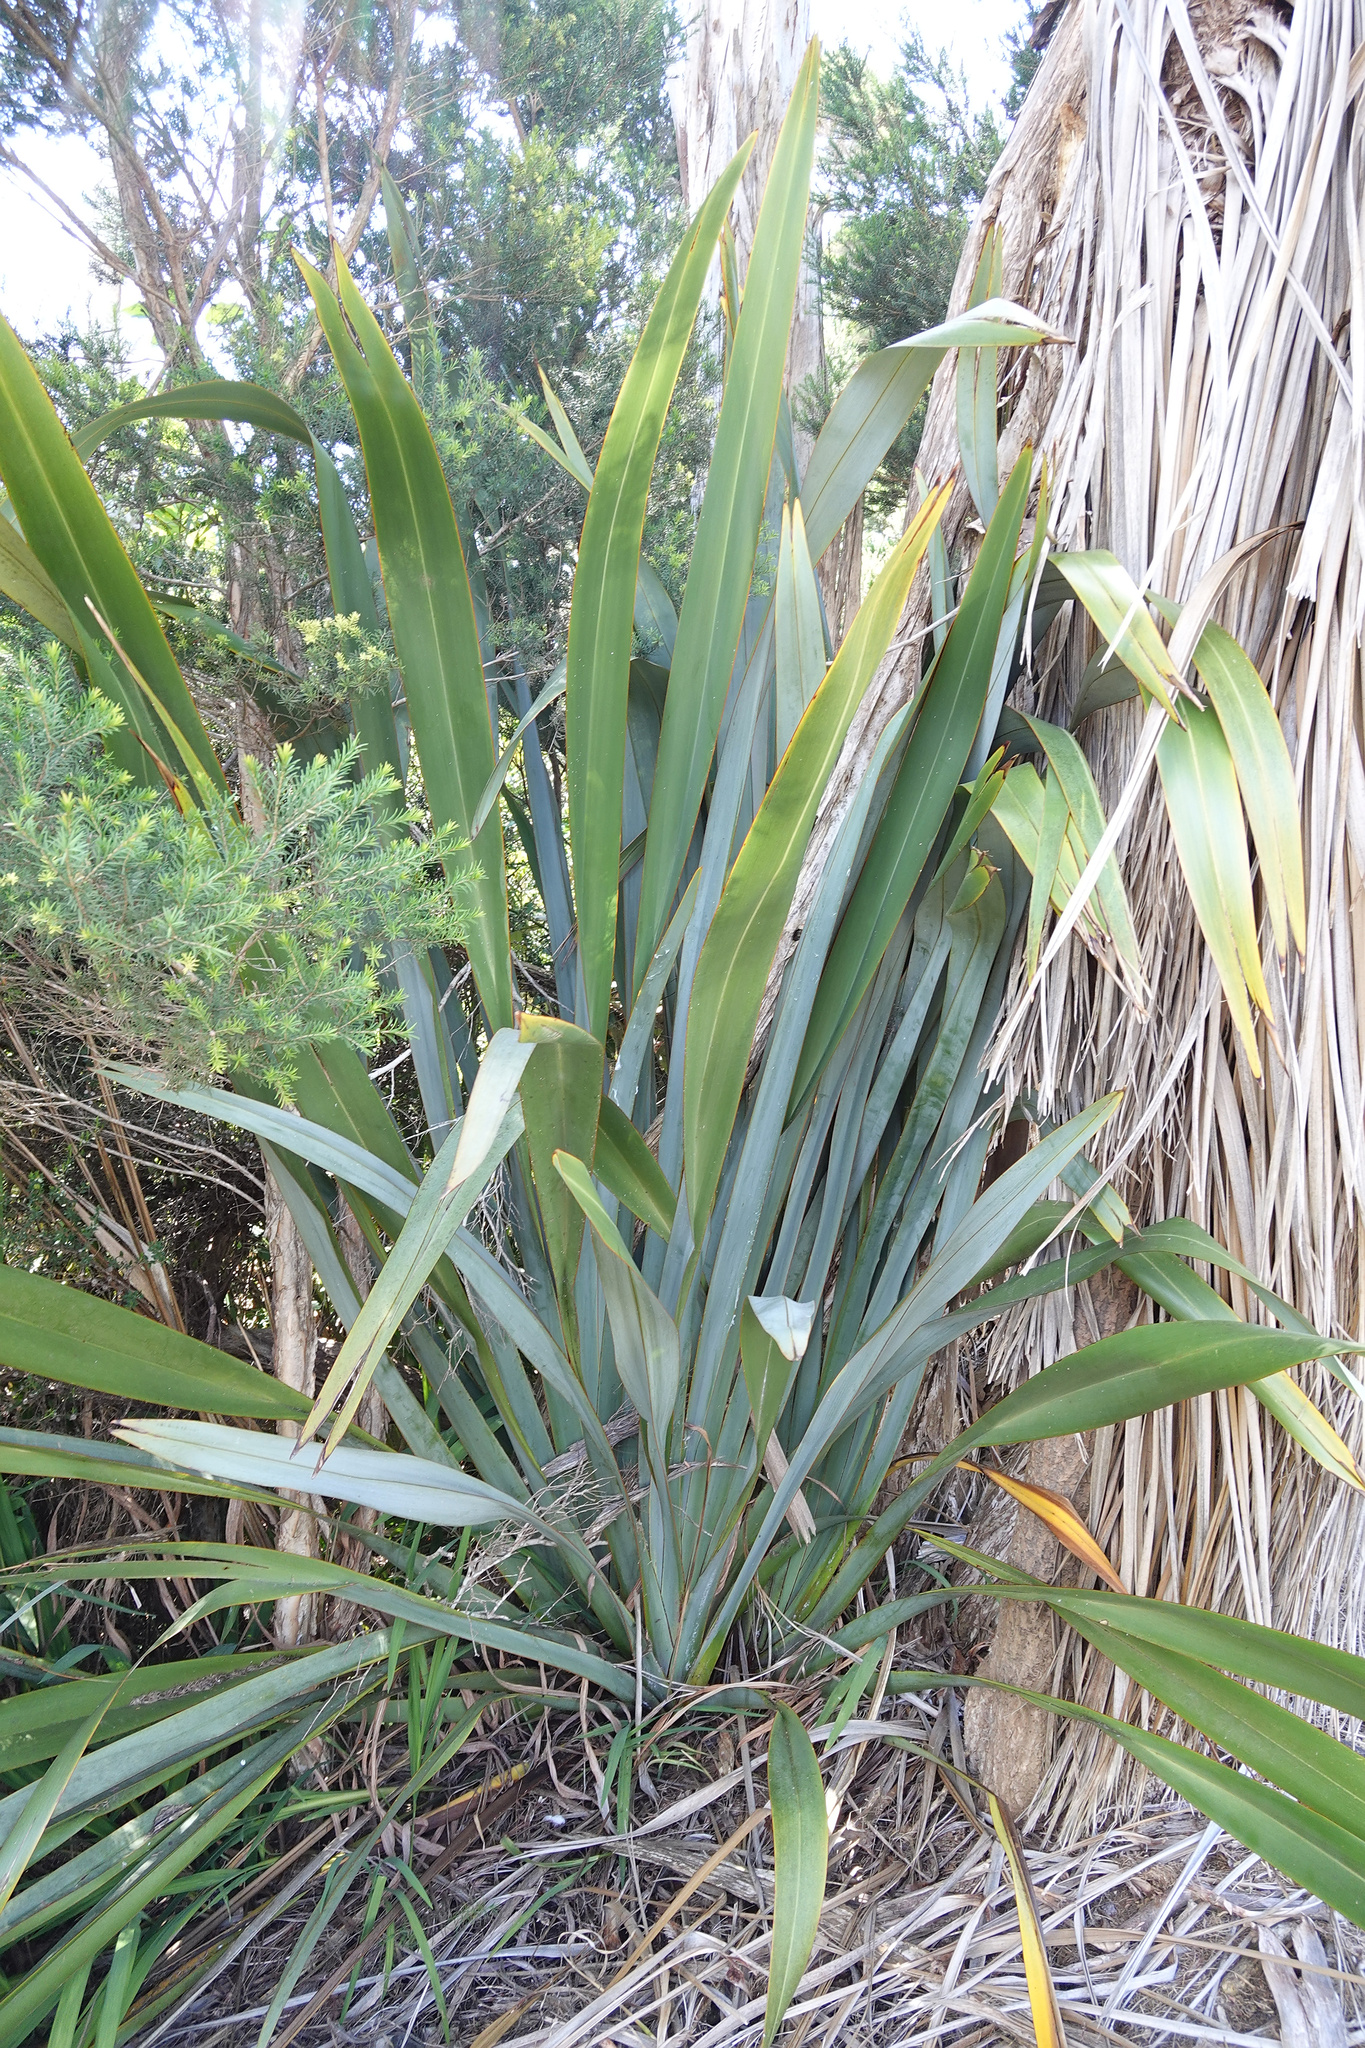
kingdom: Plantae
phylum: Tracheophyta
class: Liliopsida
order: Asparagales
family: Asphodelaceae
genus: Phormium
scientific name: Phormium tenax
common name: New zealand flax
